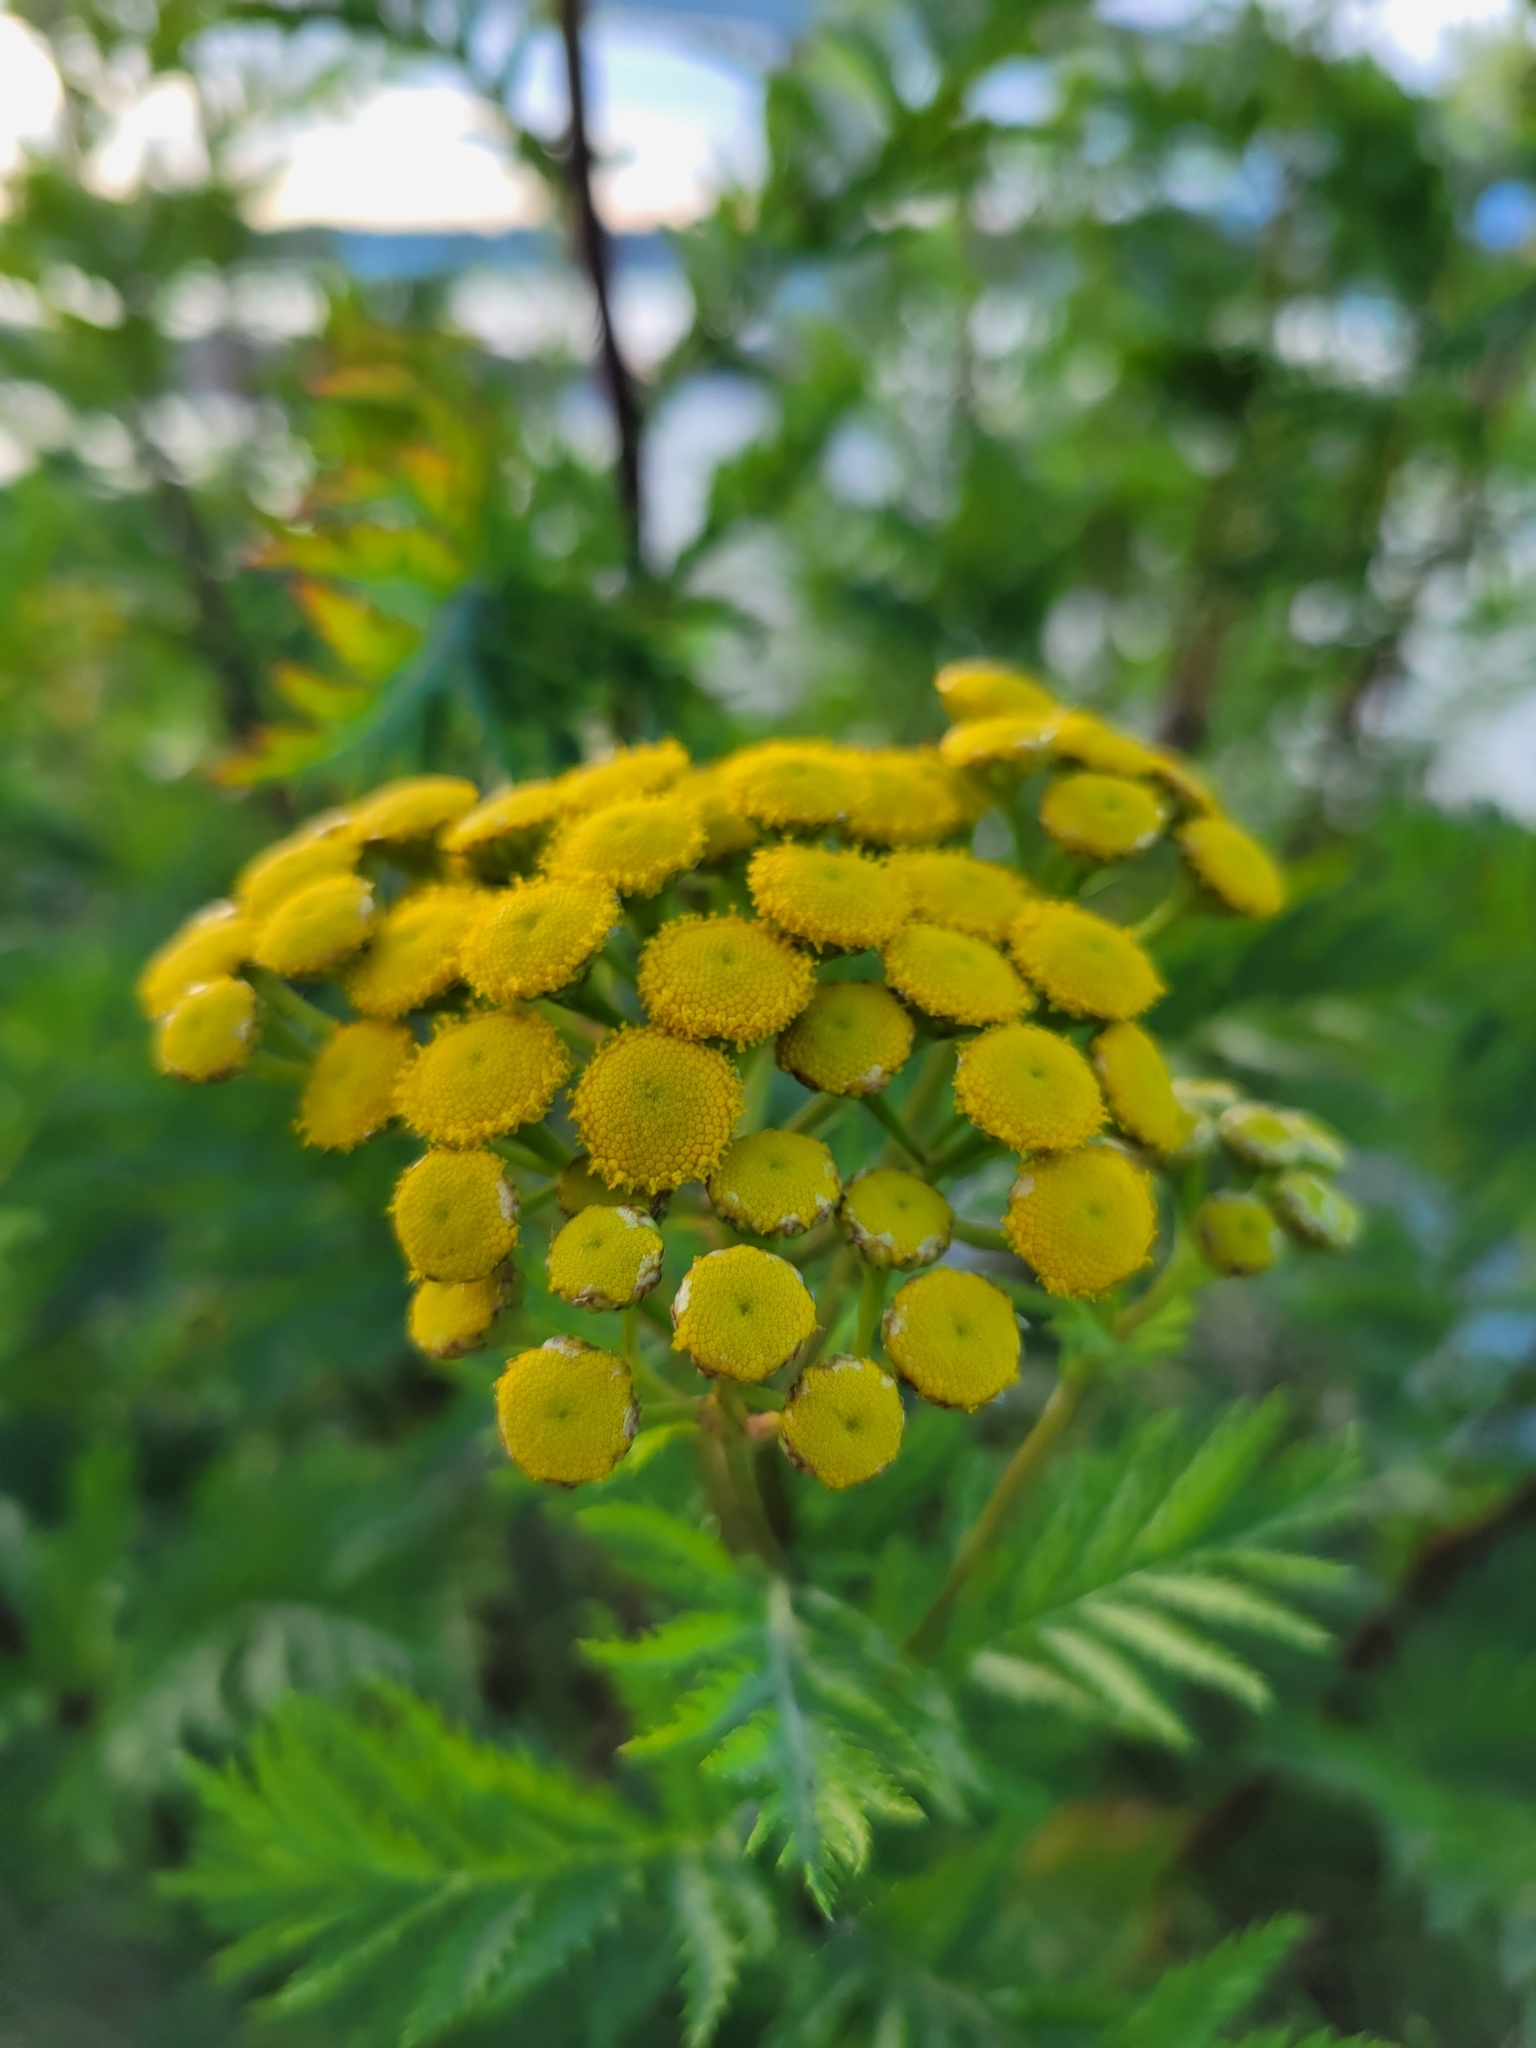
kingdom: Plantae
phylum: Tracheophyta
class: Magnoliopsida
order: Asterales
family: Asteraceae
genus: Tanacetum
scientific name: Tanacetum vulgare
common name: Common tansy
